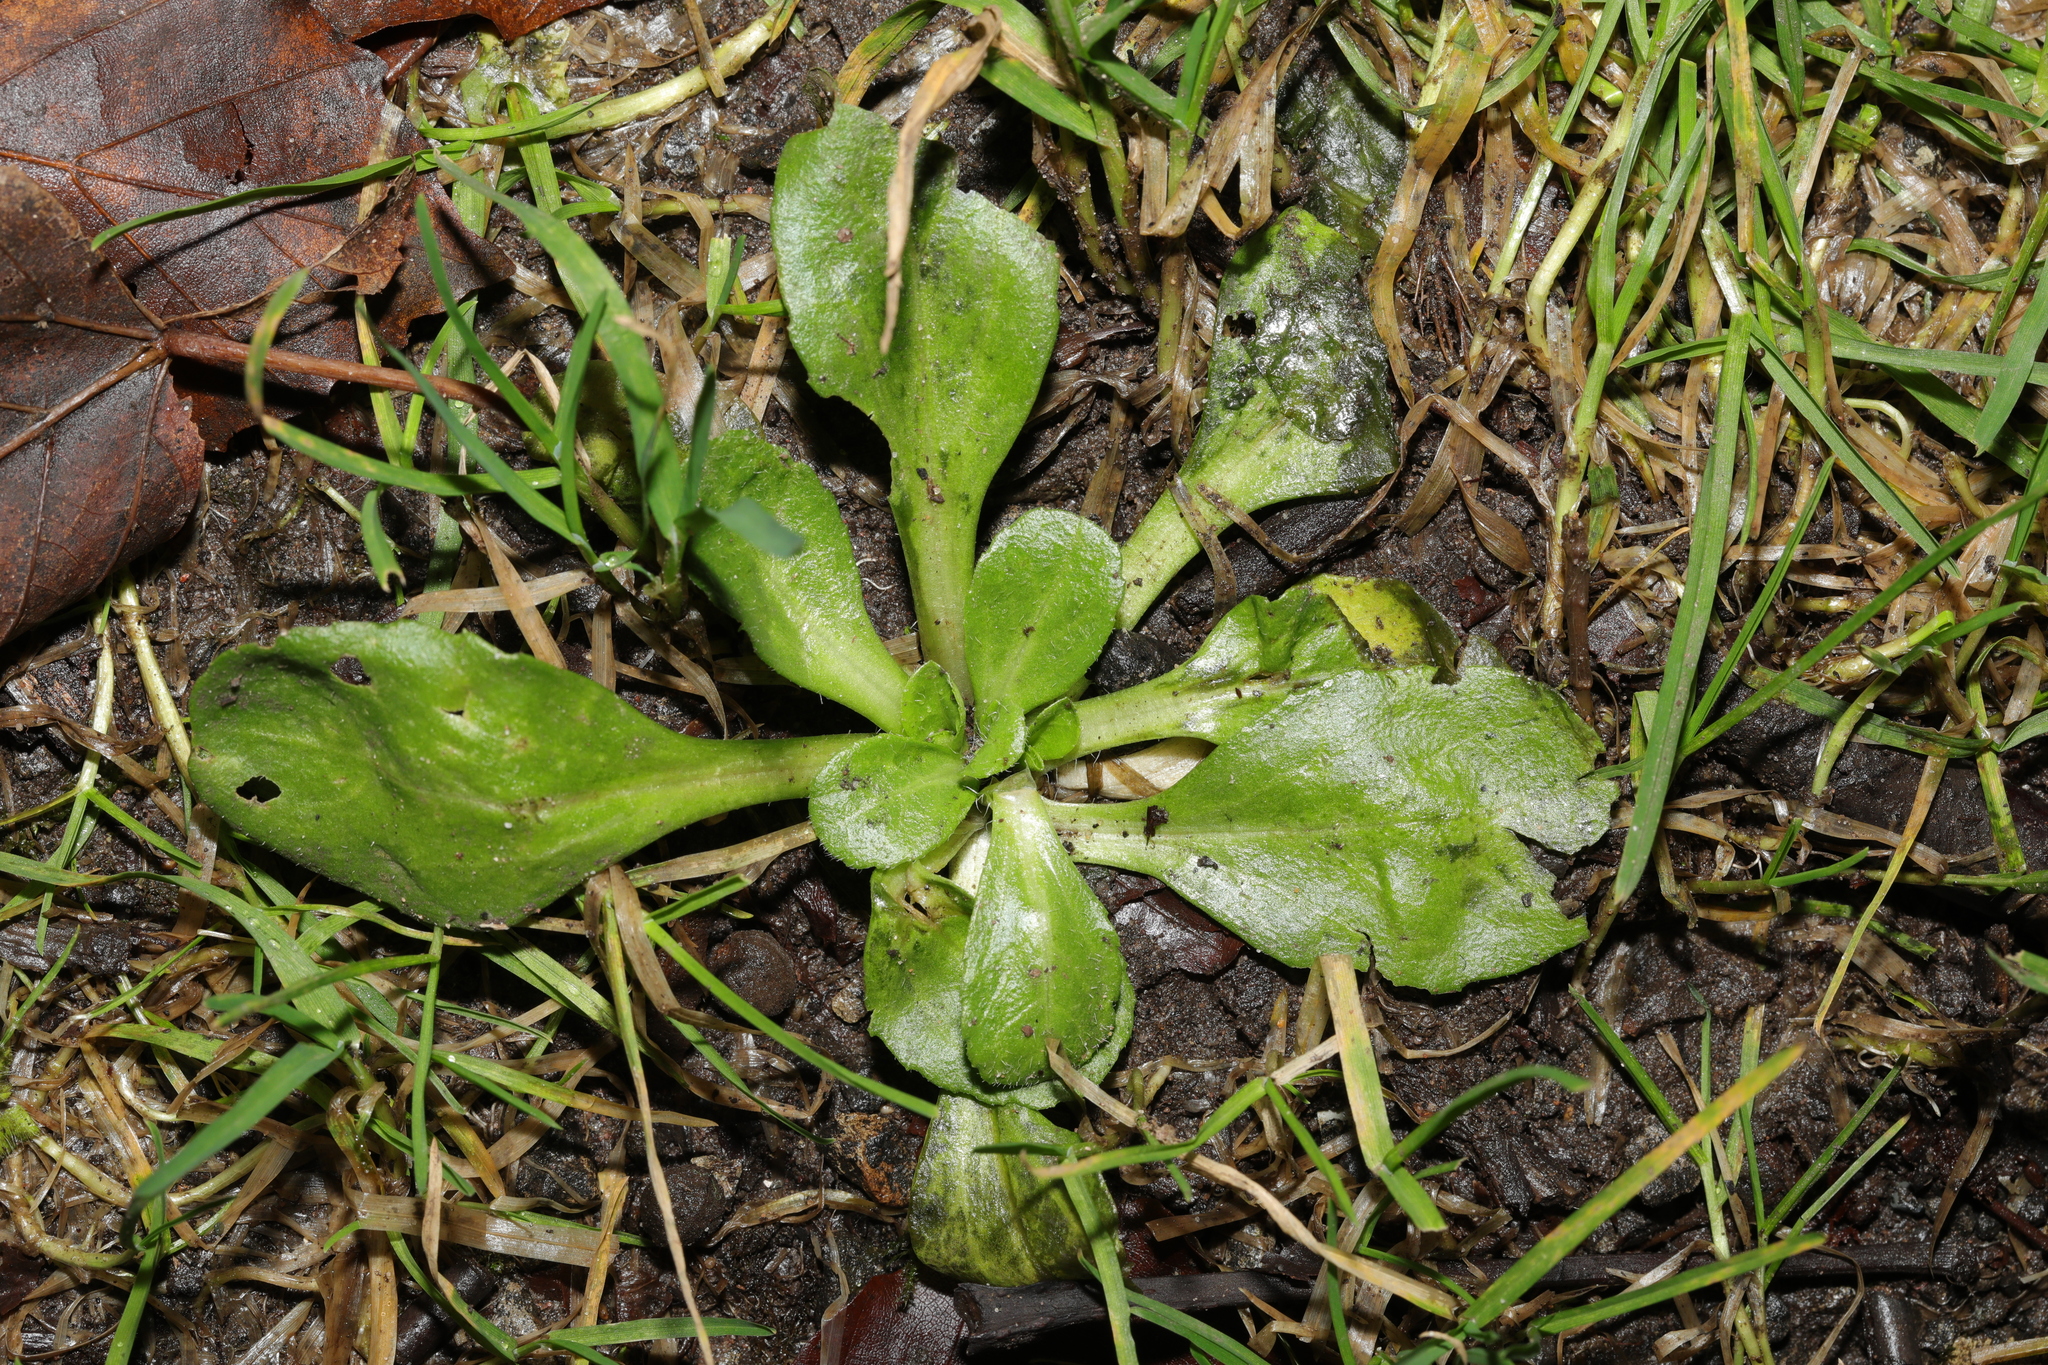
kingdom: Plantae
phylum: Tracheophyta
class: Magnoliopsida
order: Asterales
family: Asteraceae
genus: Bellis
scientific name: Bellis perennis
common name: Lawndaisy
